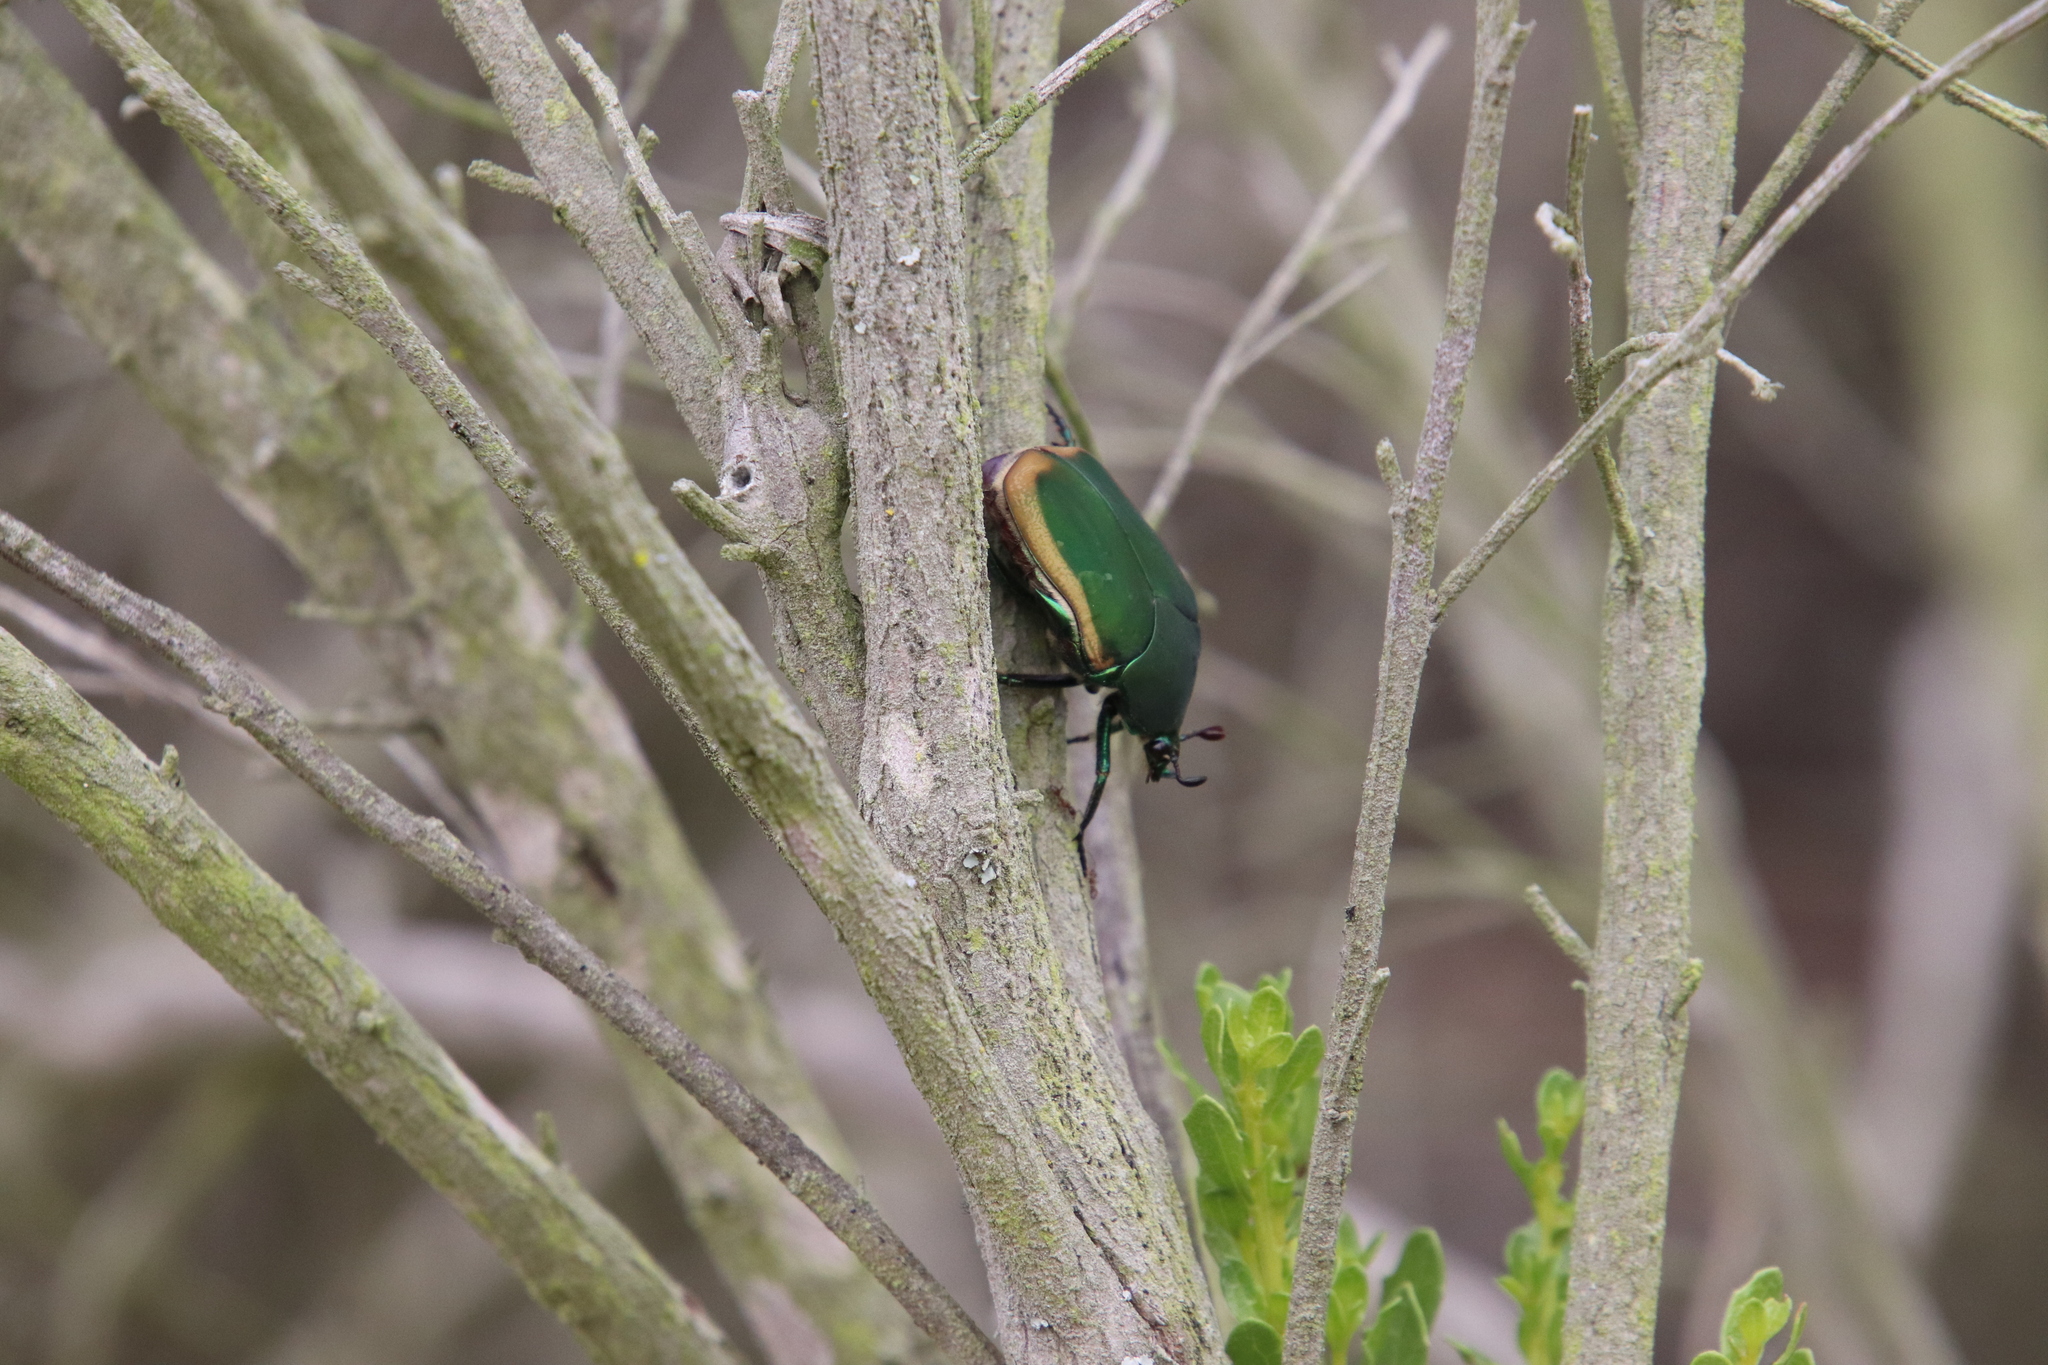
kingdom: Animalia
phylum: Arthropoda
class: Insecta
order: Coleoptera
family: Scarabaeidae
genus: Cotinis
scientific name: Cotinis mutabilis
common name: Figeater beetle
